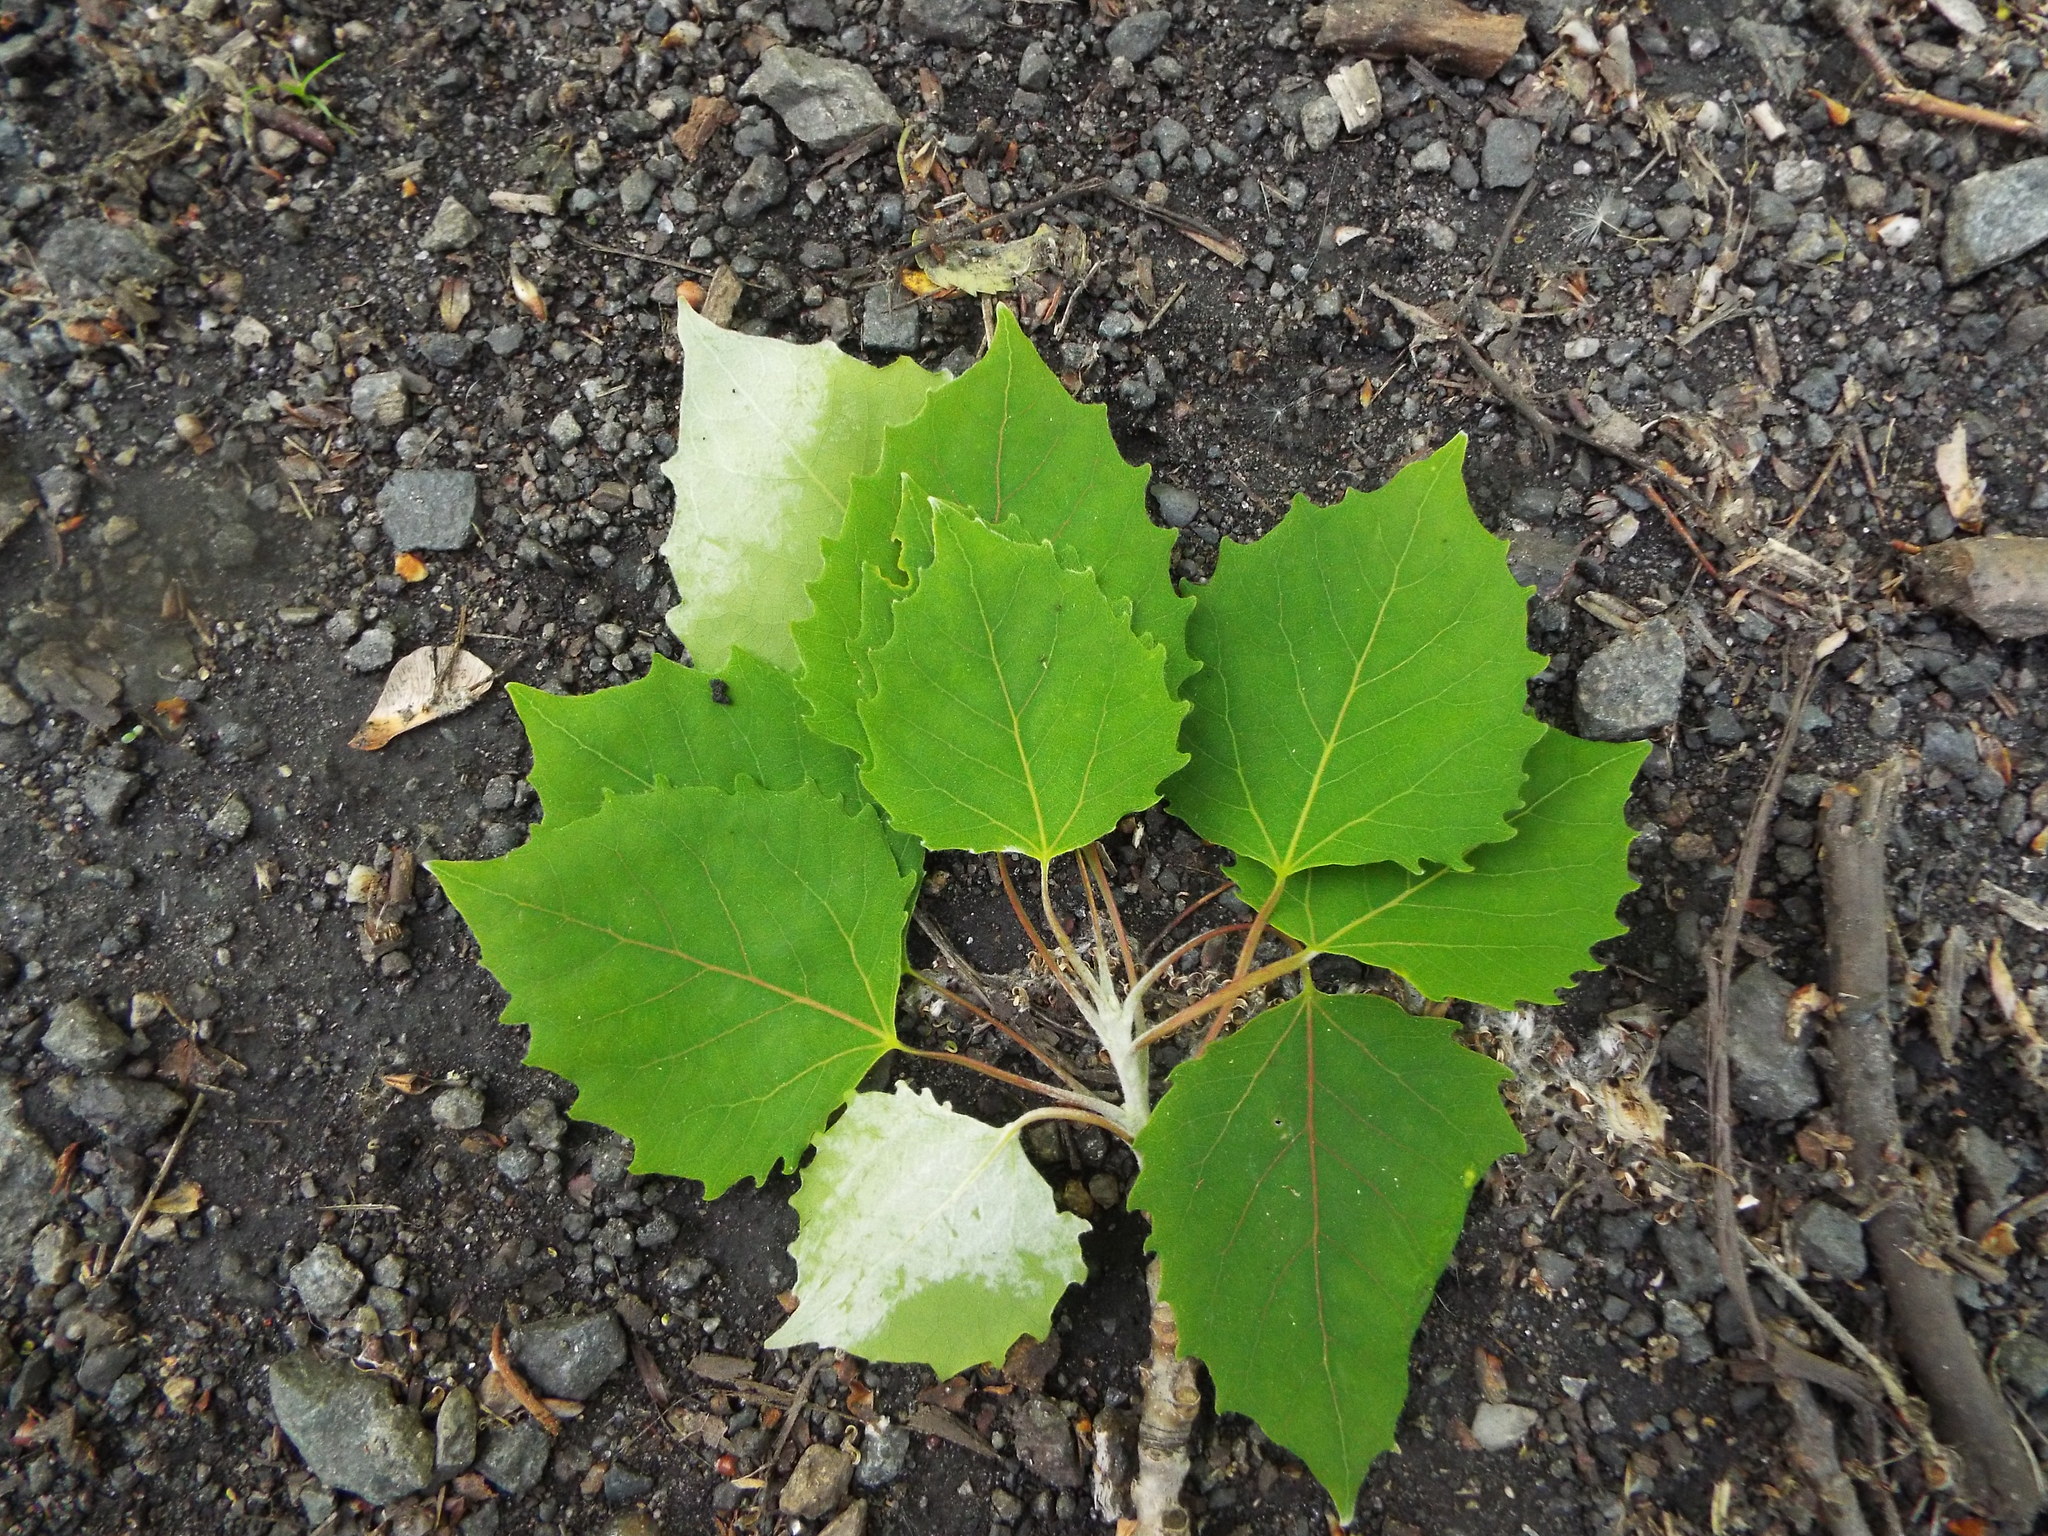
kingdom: Plantae
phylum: Tracheophyta
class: Magnoliopsida
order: Malpighiales
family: Salicaceae
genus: Populus
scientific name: Populus grandidentata
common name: Bigtooth aspen
